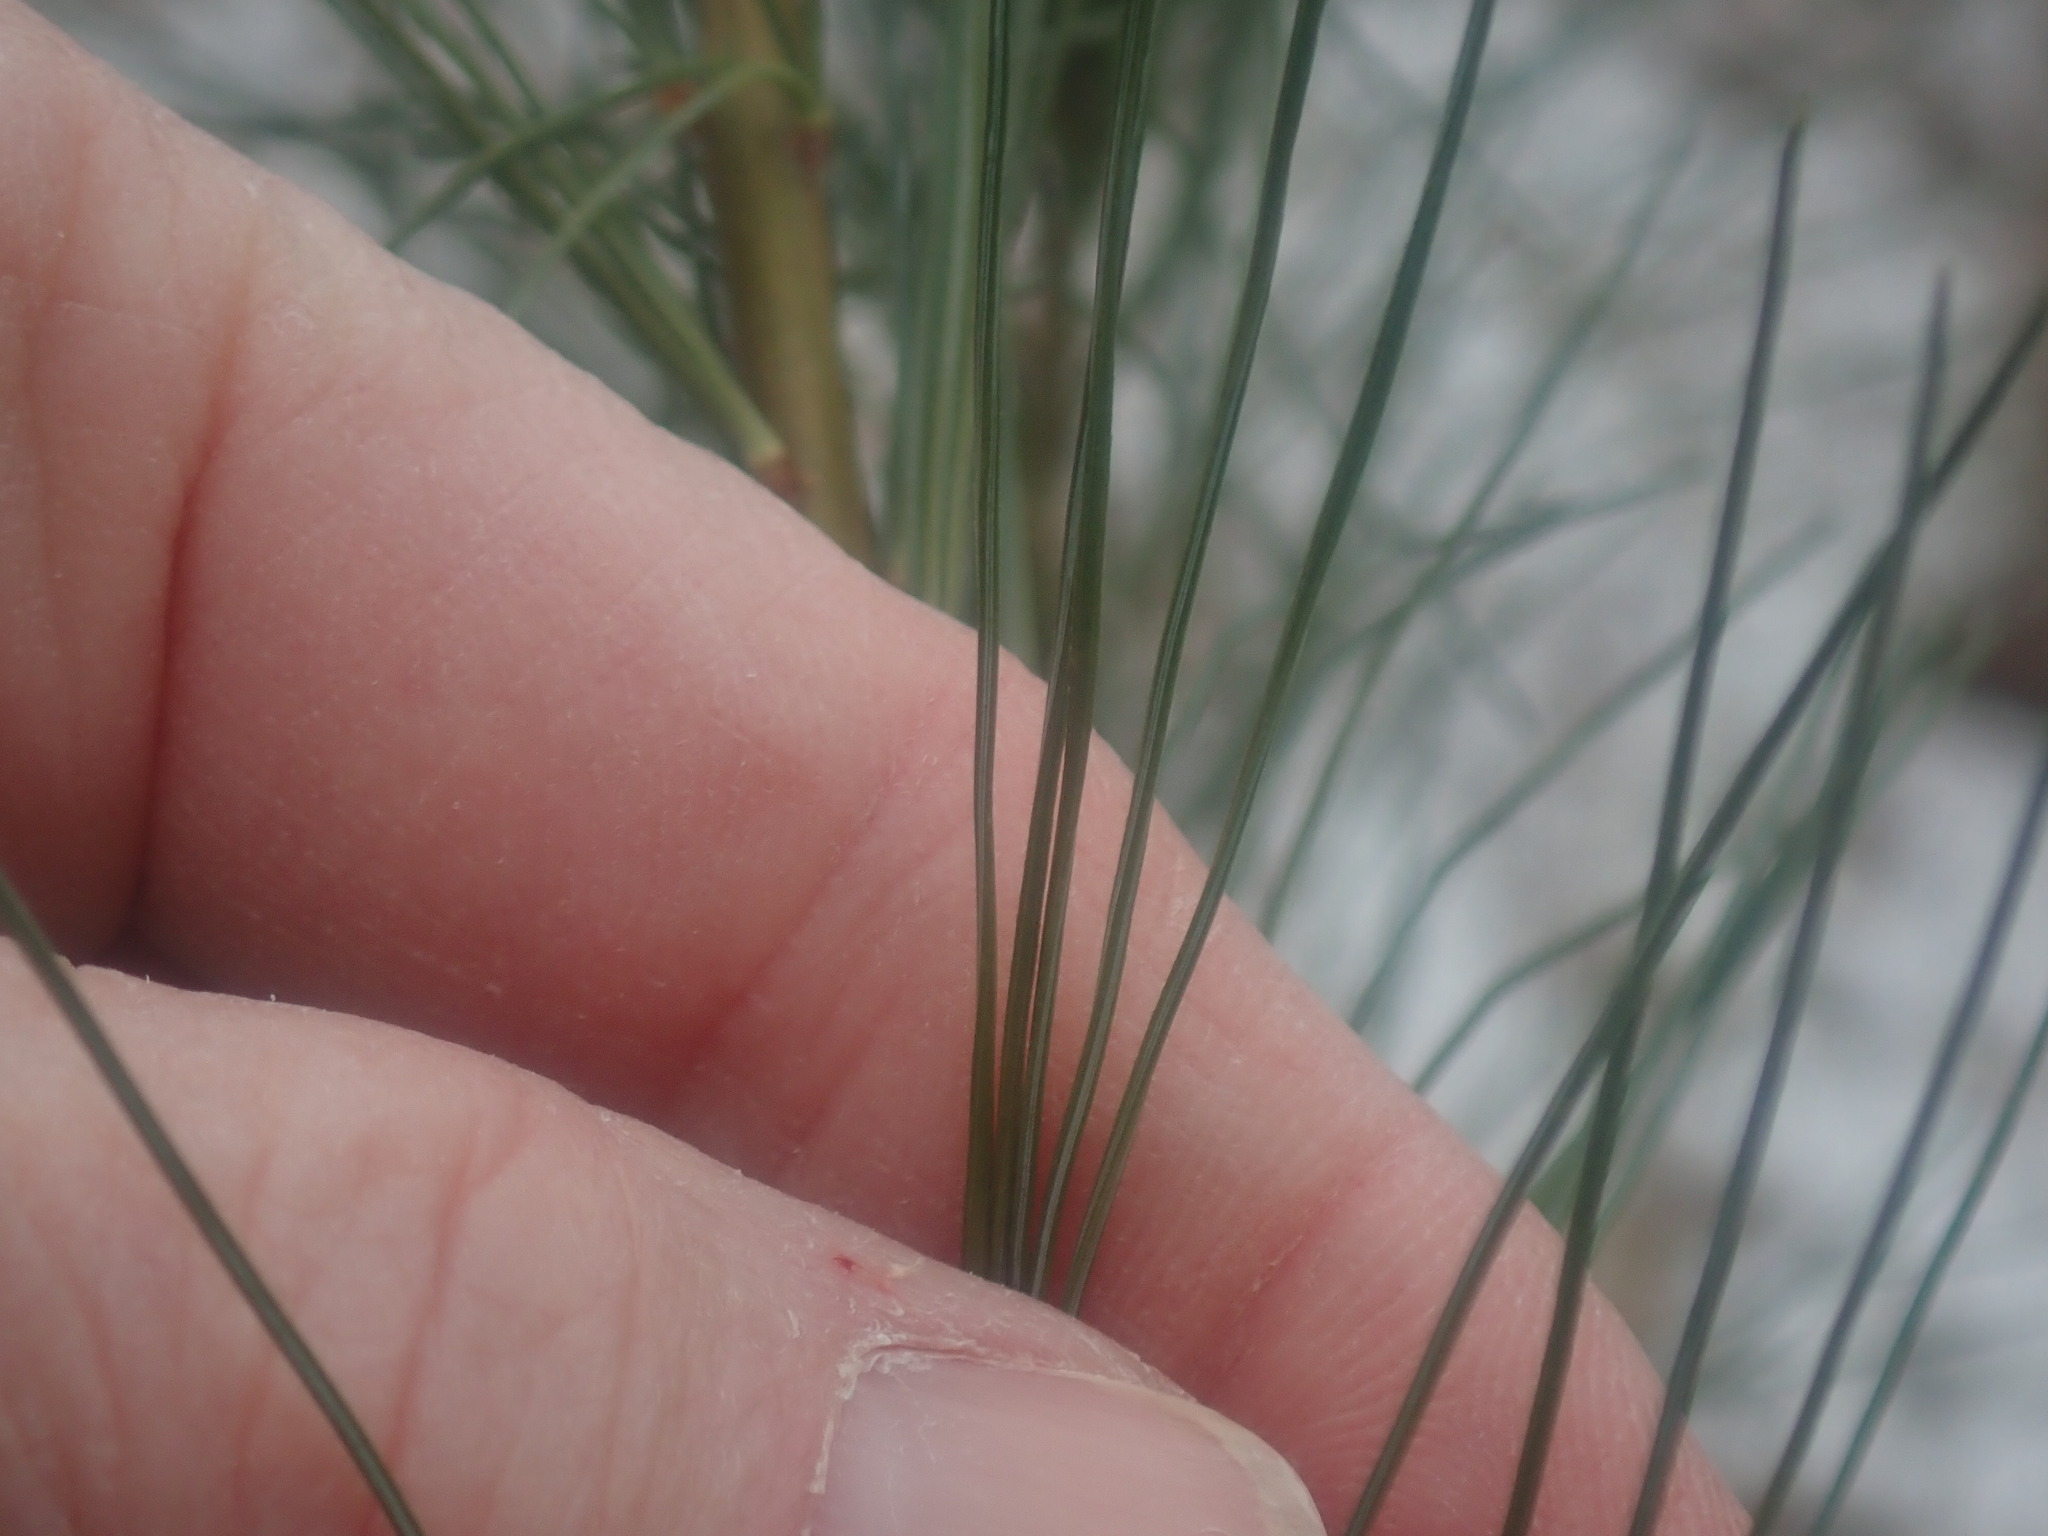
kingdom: Plantae
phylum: Tracheophyta
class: Pinopsida
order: Pinales
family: Pinaceae
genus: Pinus
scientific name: Pinus strobus
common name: Weymouth pine
